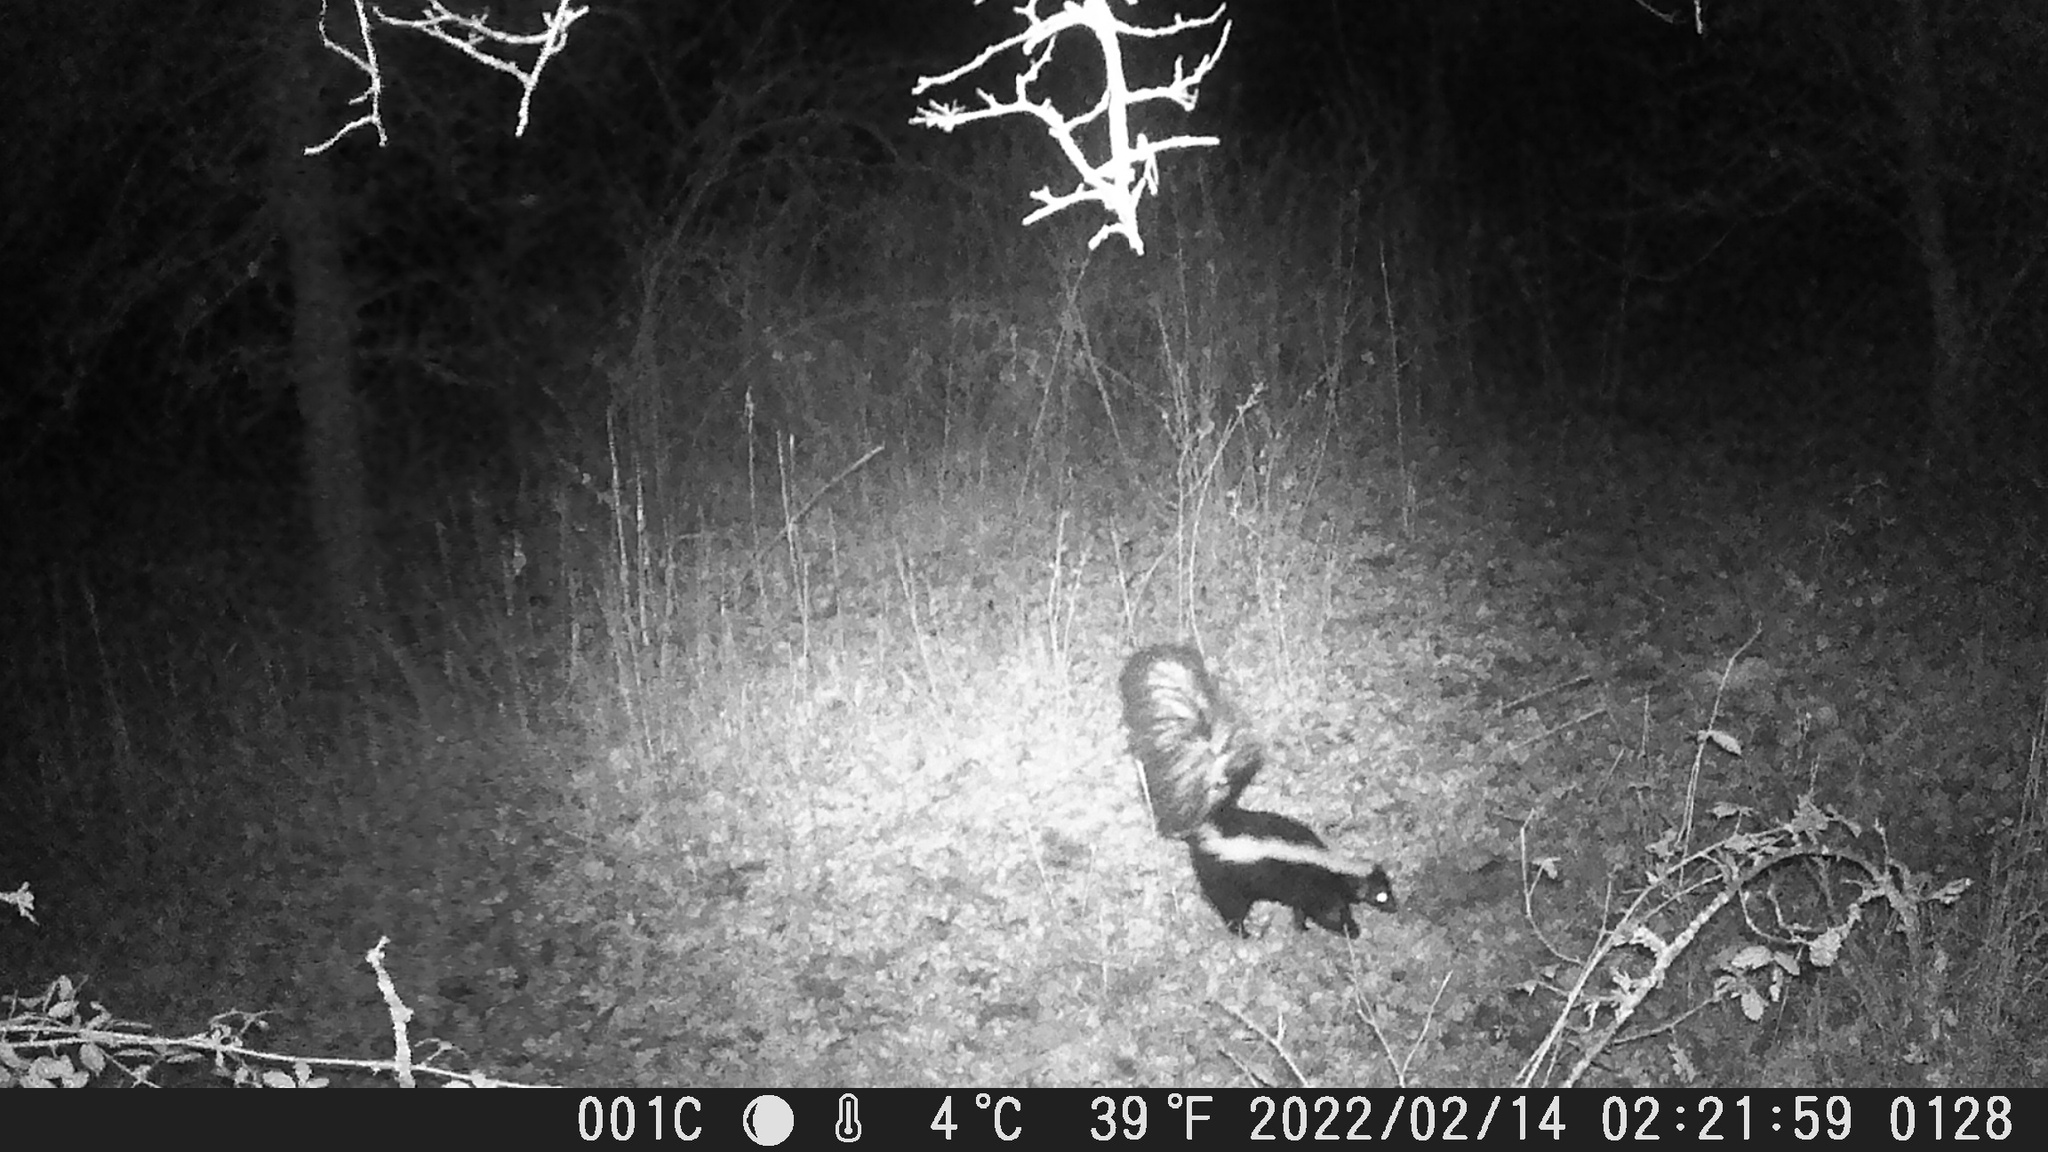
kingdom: Animalia
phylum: Chordata
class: Mammalia
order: Carnivora
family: Mephitidae
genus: Mephitis
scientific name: Mephitis mephitis
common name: Striped skunk
